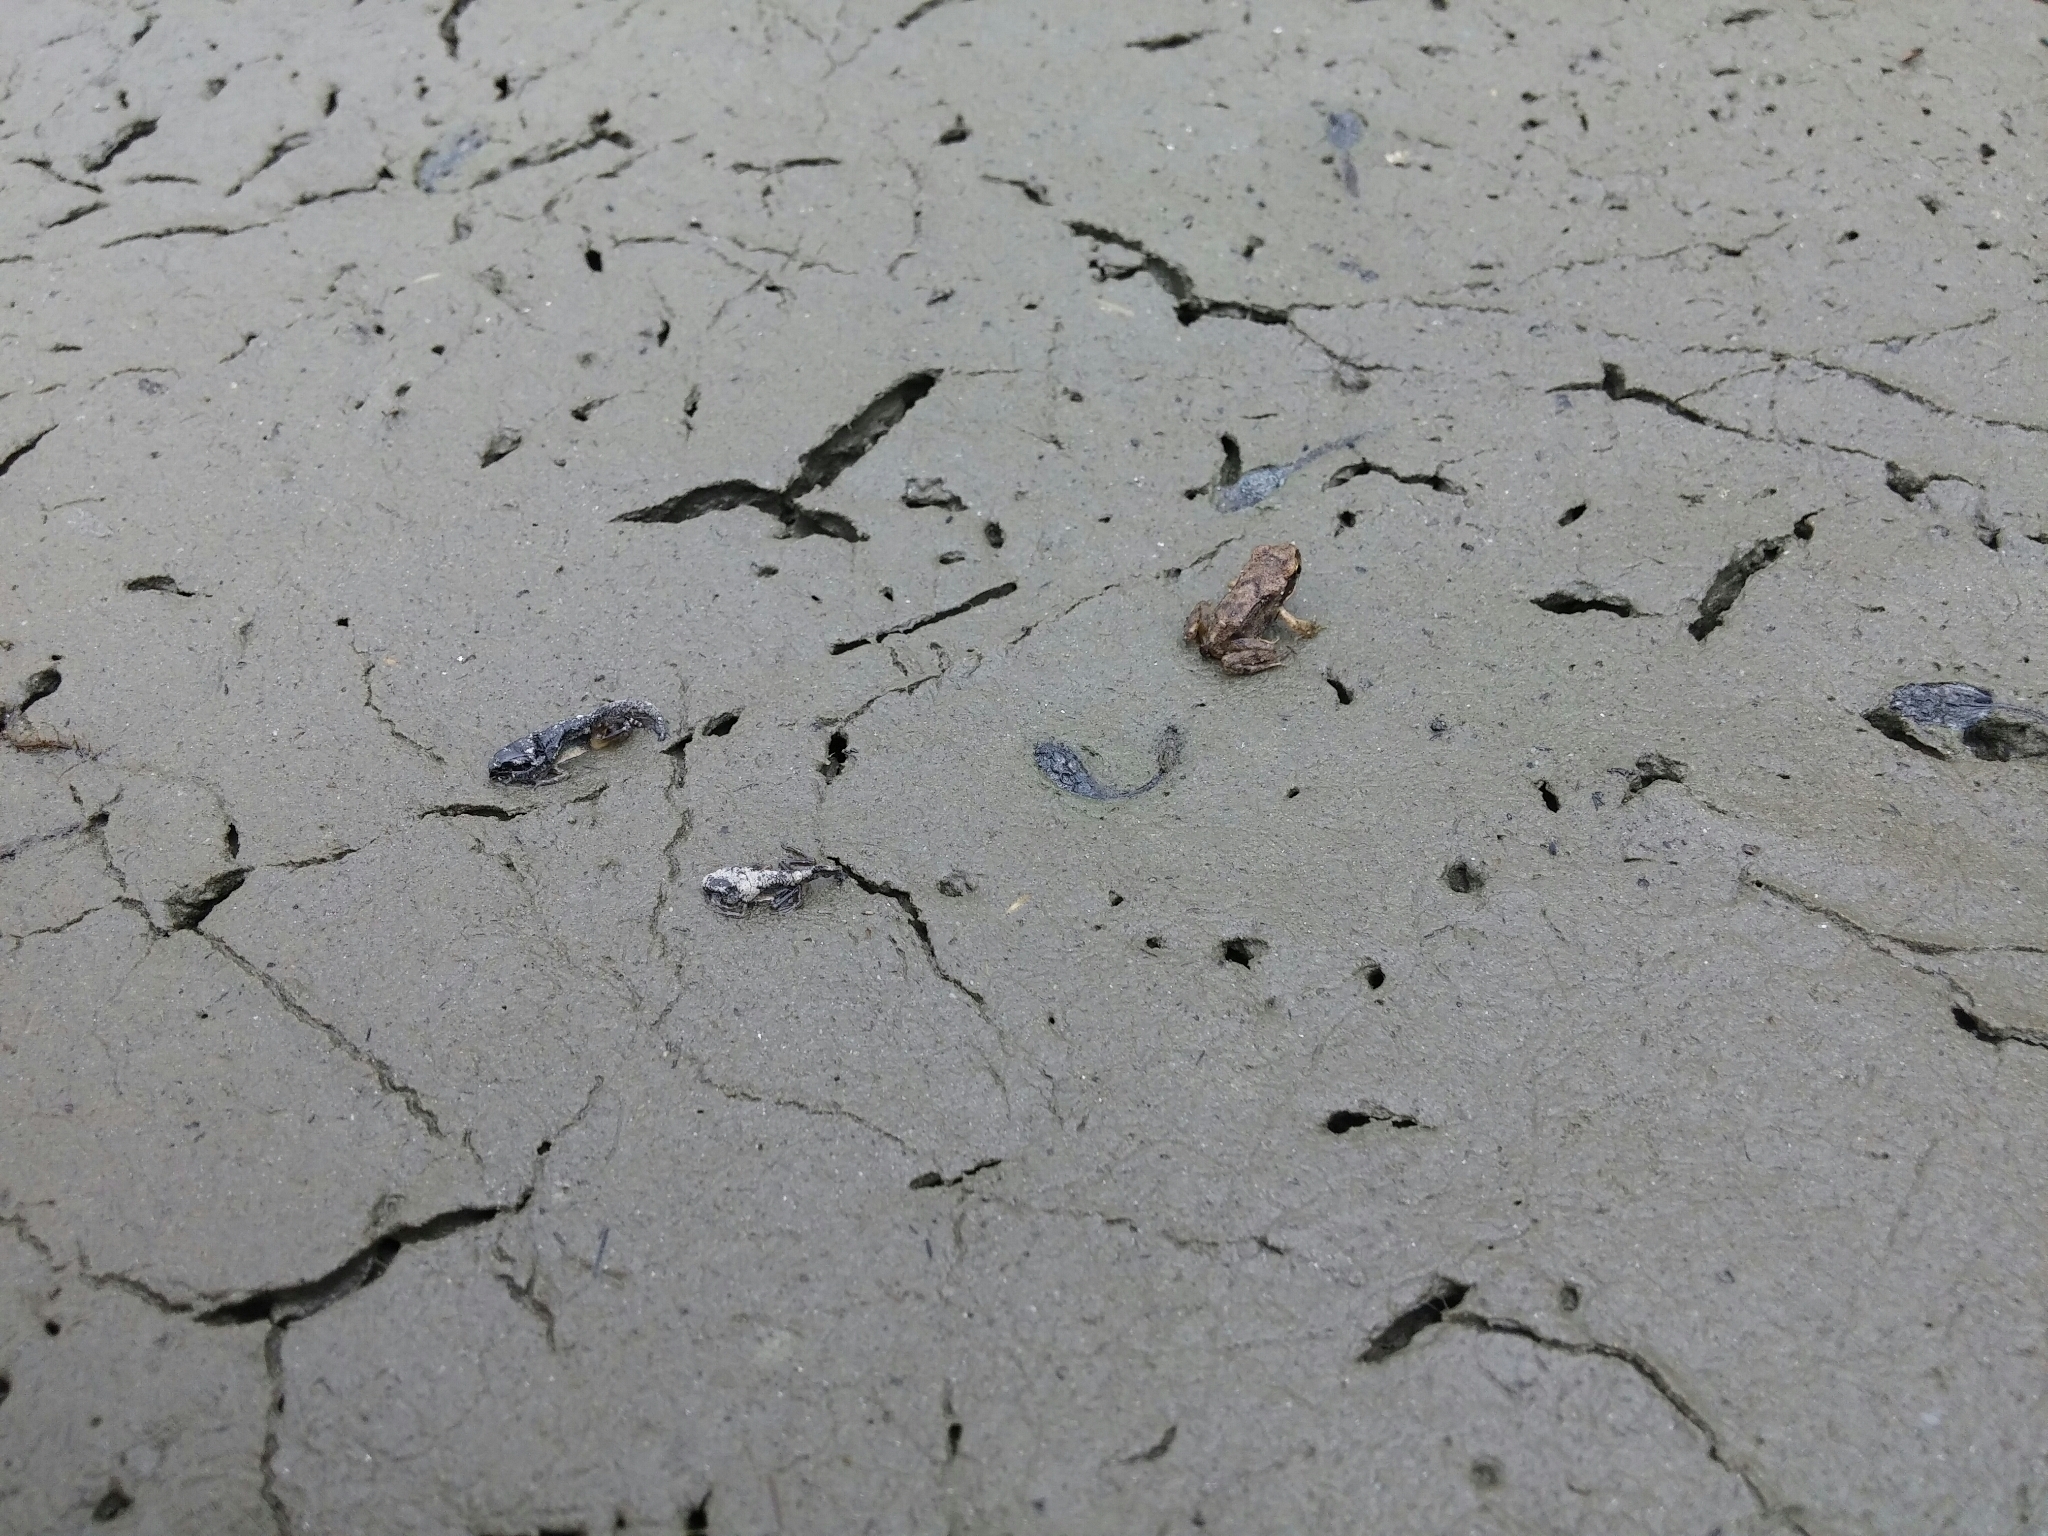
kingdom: Animalia
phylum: Chordata
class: Amphibia
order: Anura
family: Ranidae
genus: Rana
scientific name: Rana temporaria
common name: Common frog
